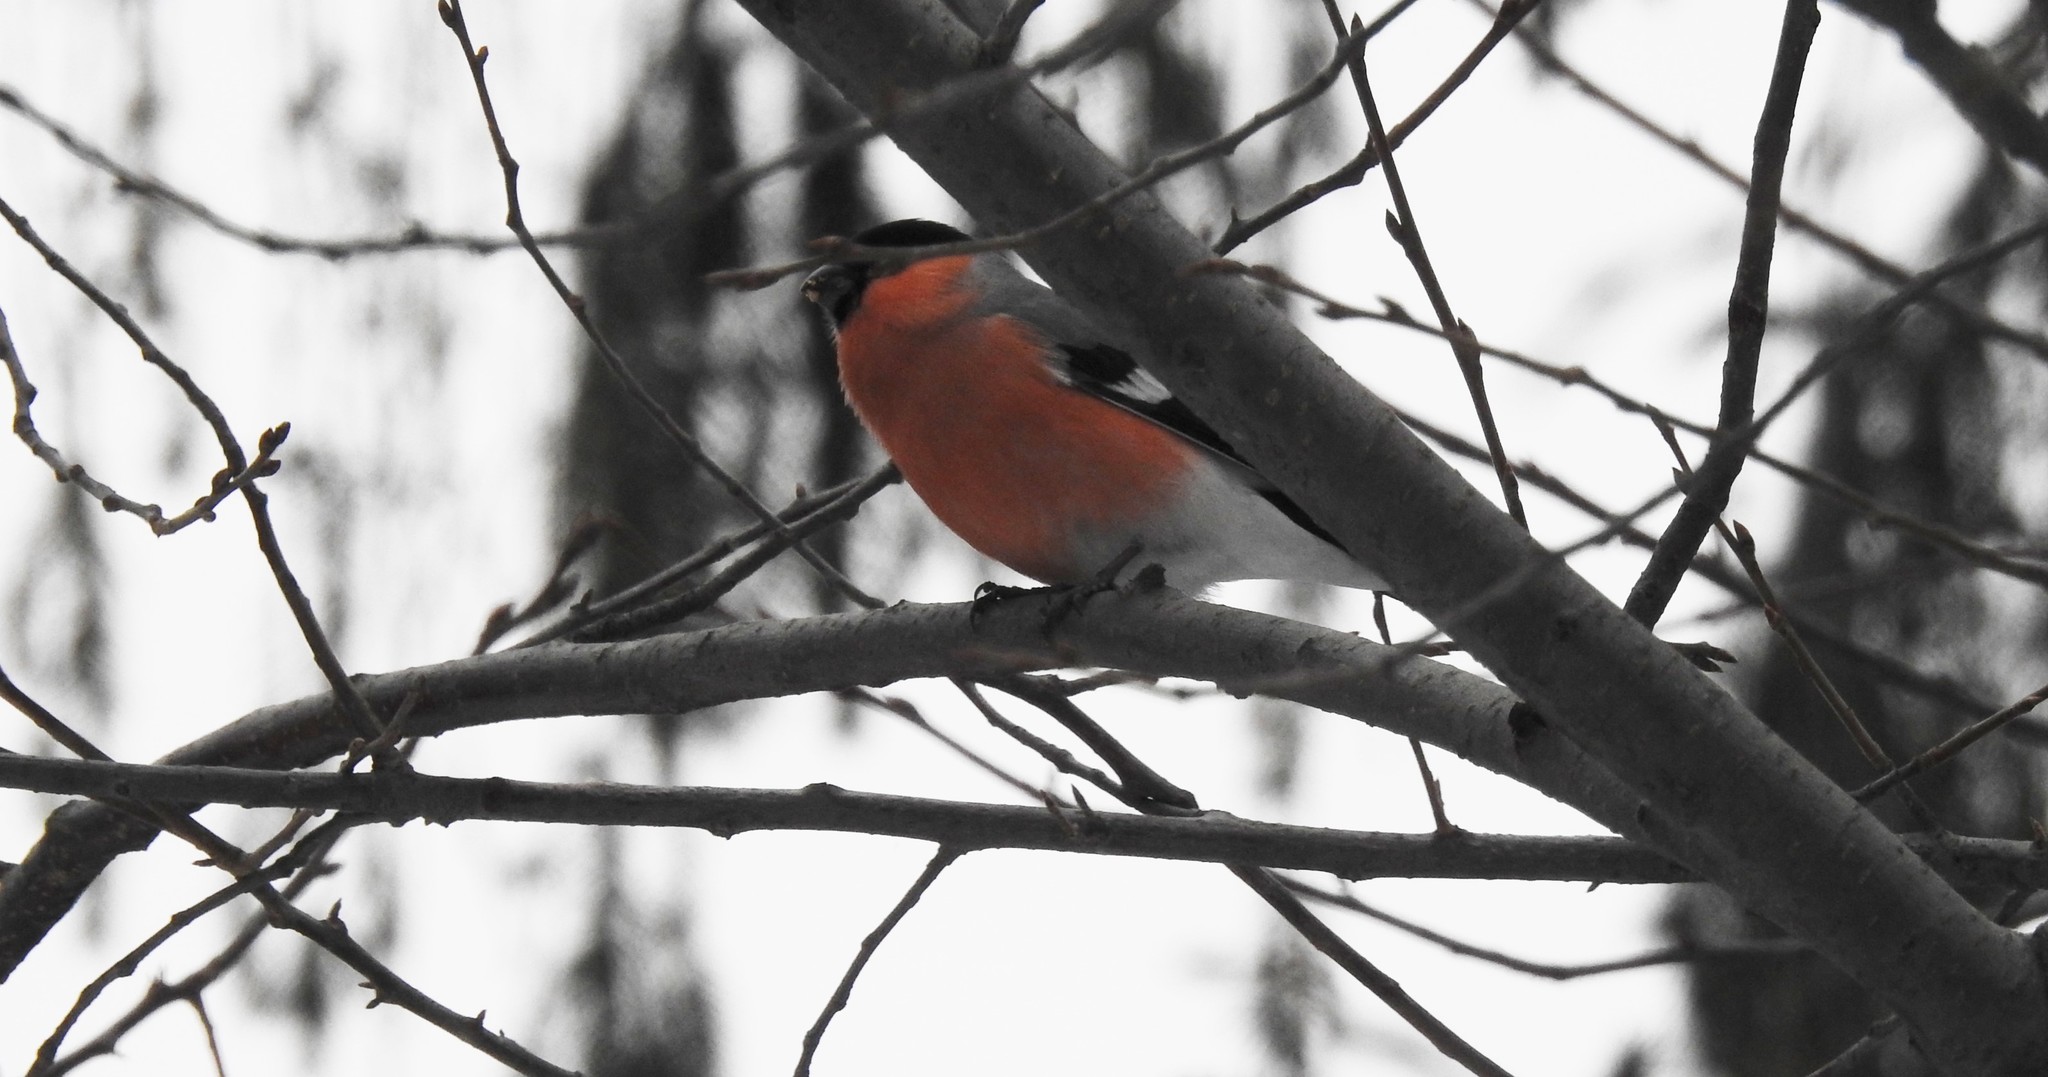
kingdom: Animalia
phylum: Chordata
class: Aves
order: Passeriformes
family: Fringillidae
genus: Pyrrhula
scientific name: Pyrrhula pyrrhula
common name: Eurasian bullfinch
